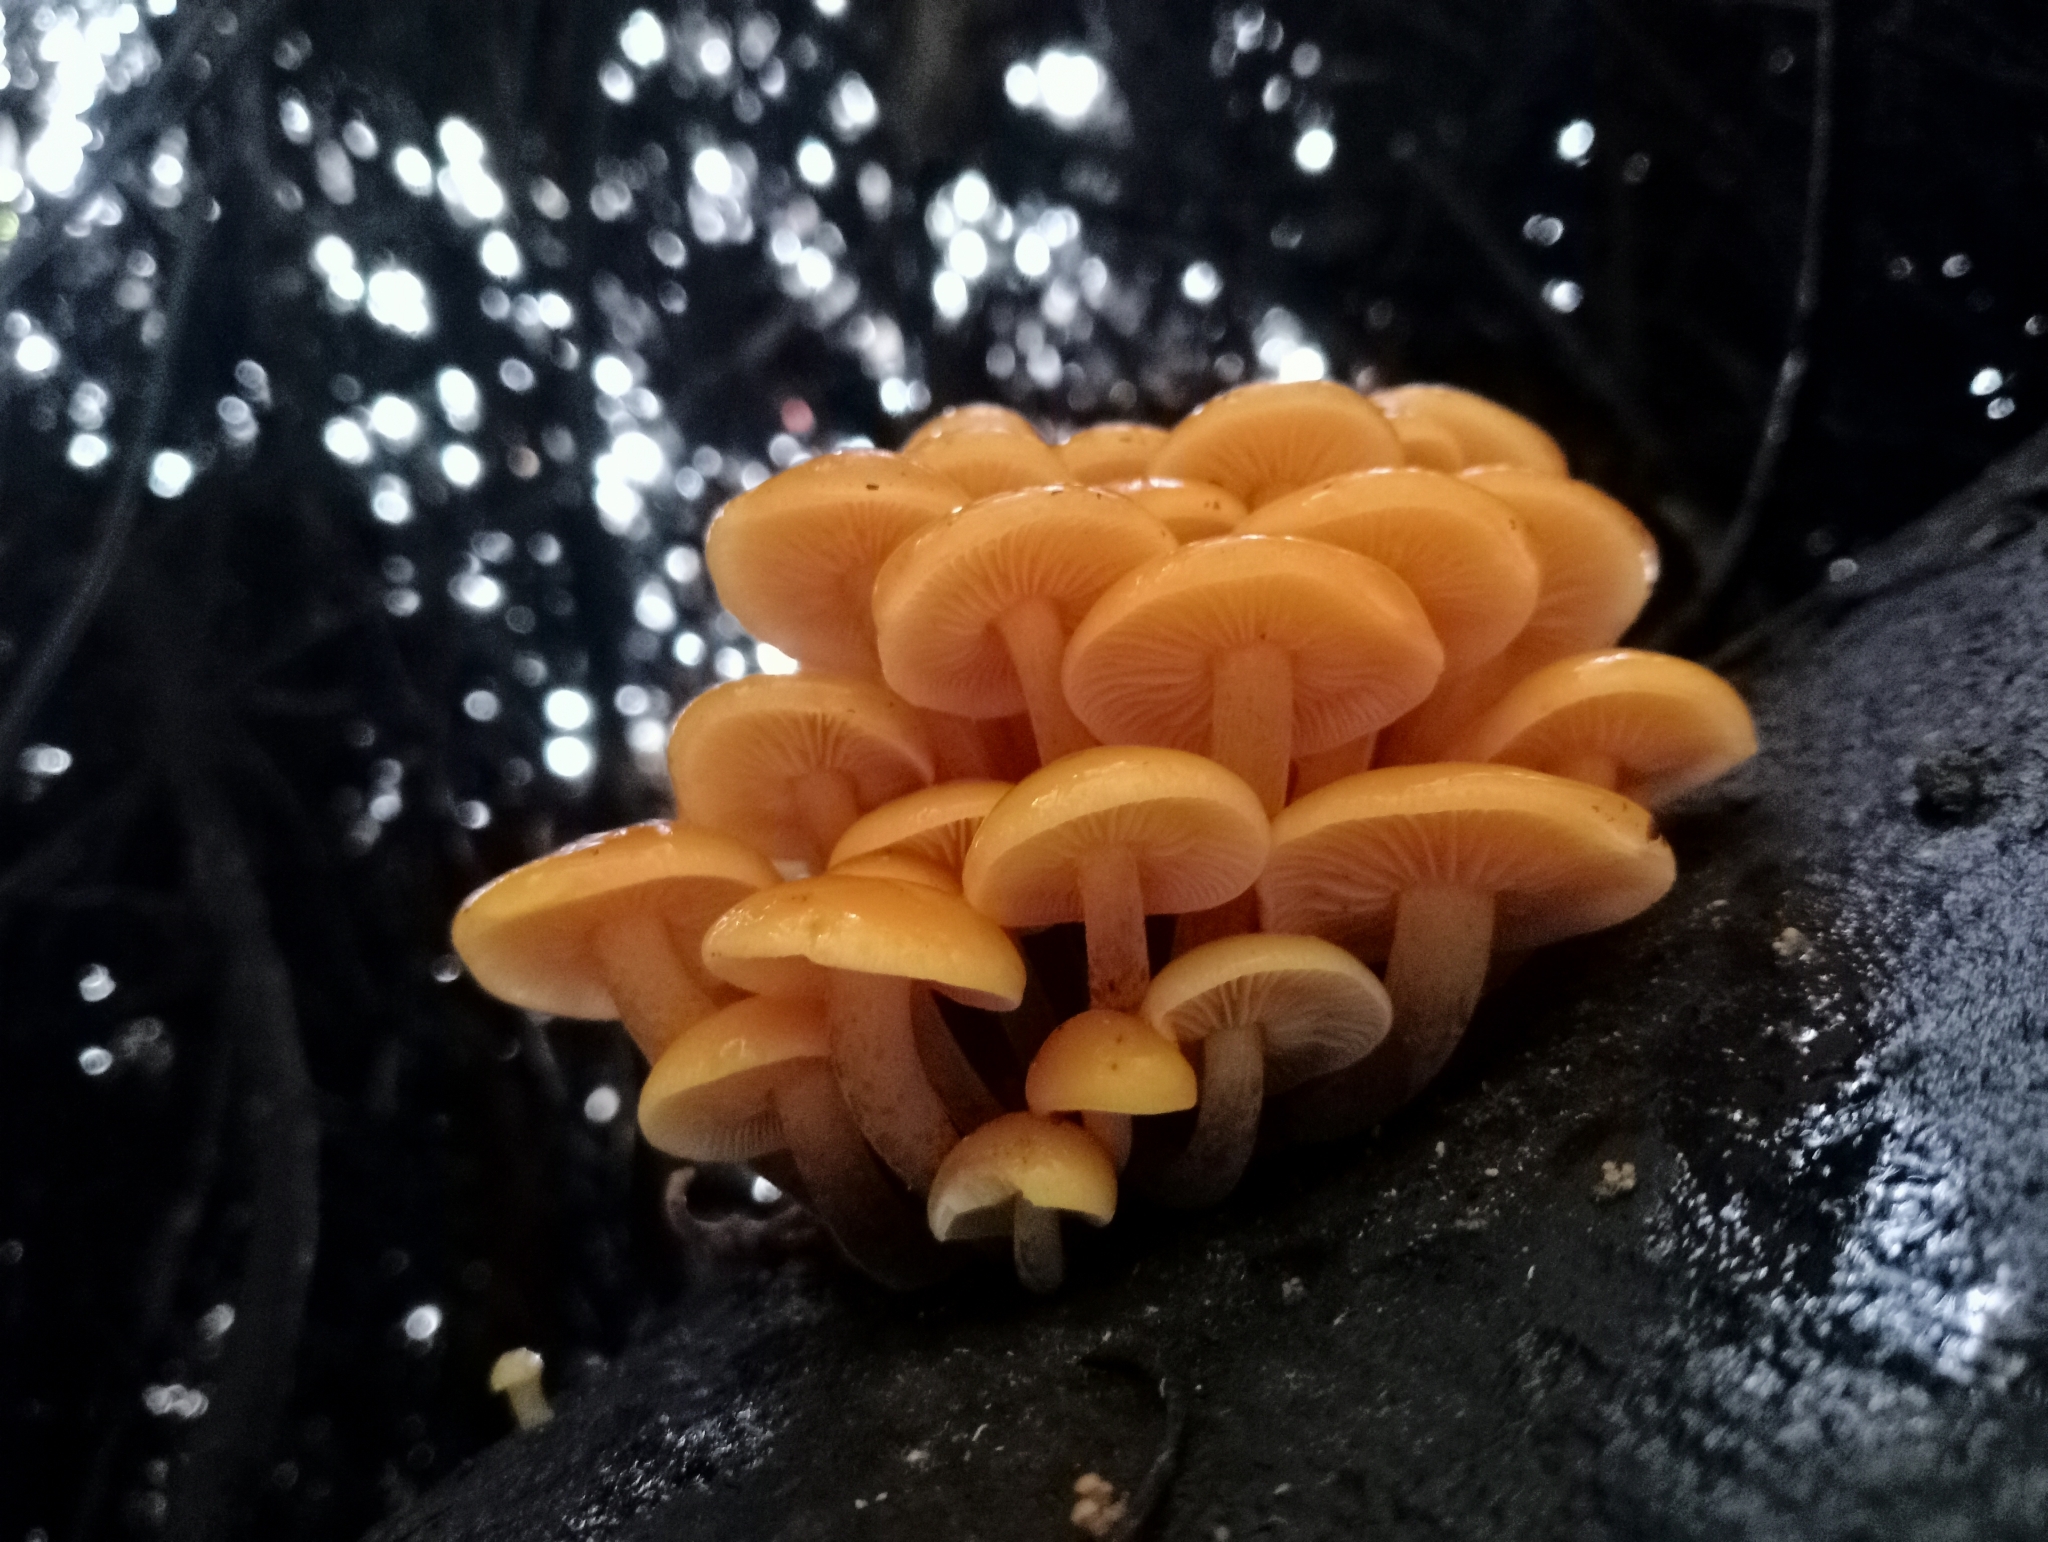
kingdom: Fungi
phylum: Basidiomycota
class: Agaricomycetes
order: Agaricales
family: Physalacriaceae
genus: Flammulina
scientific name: Flammulina velutipes
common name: Velvet shank
